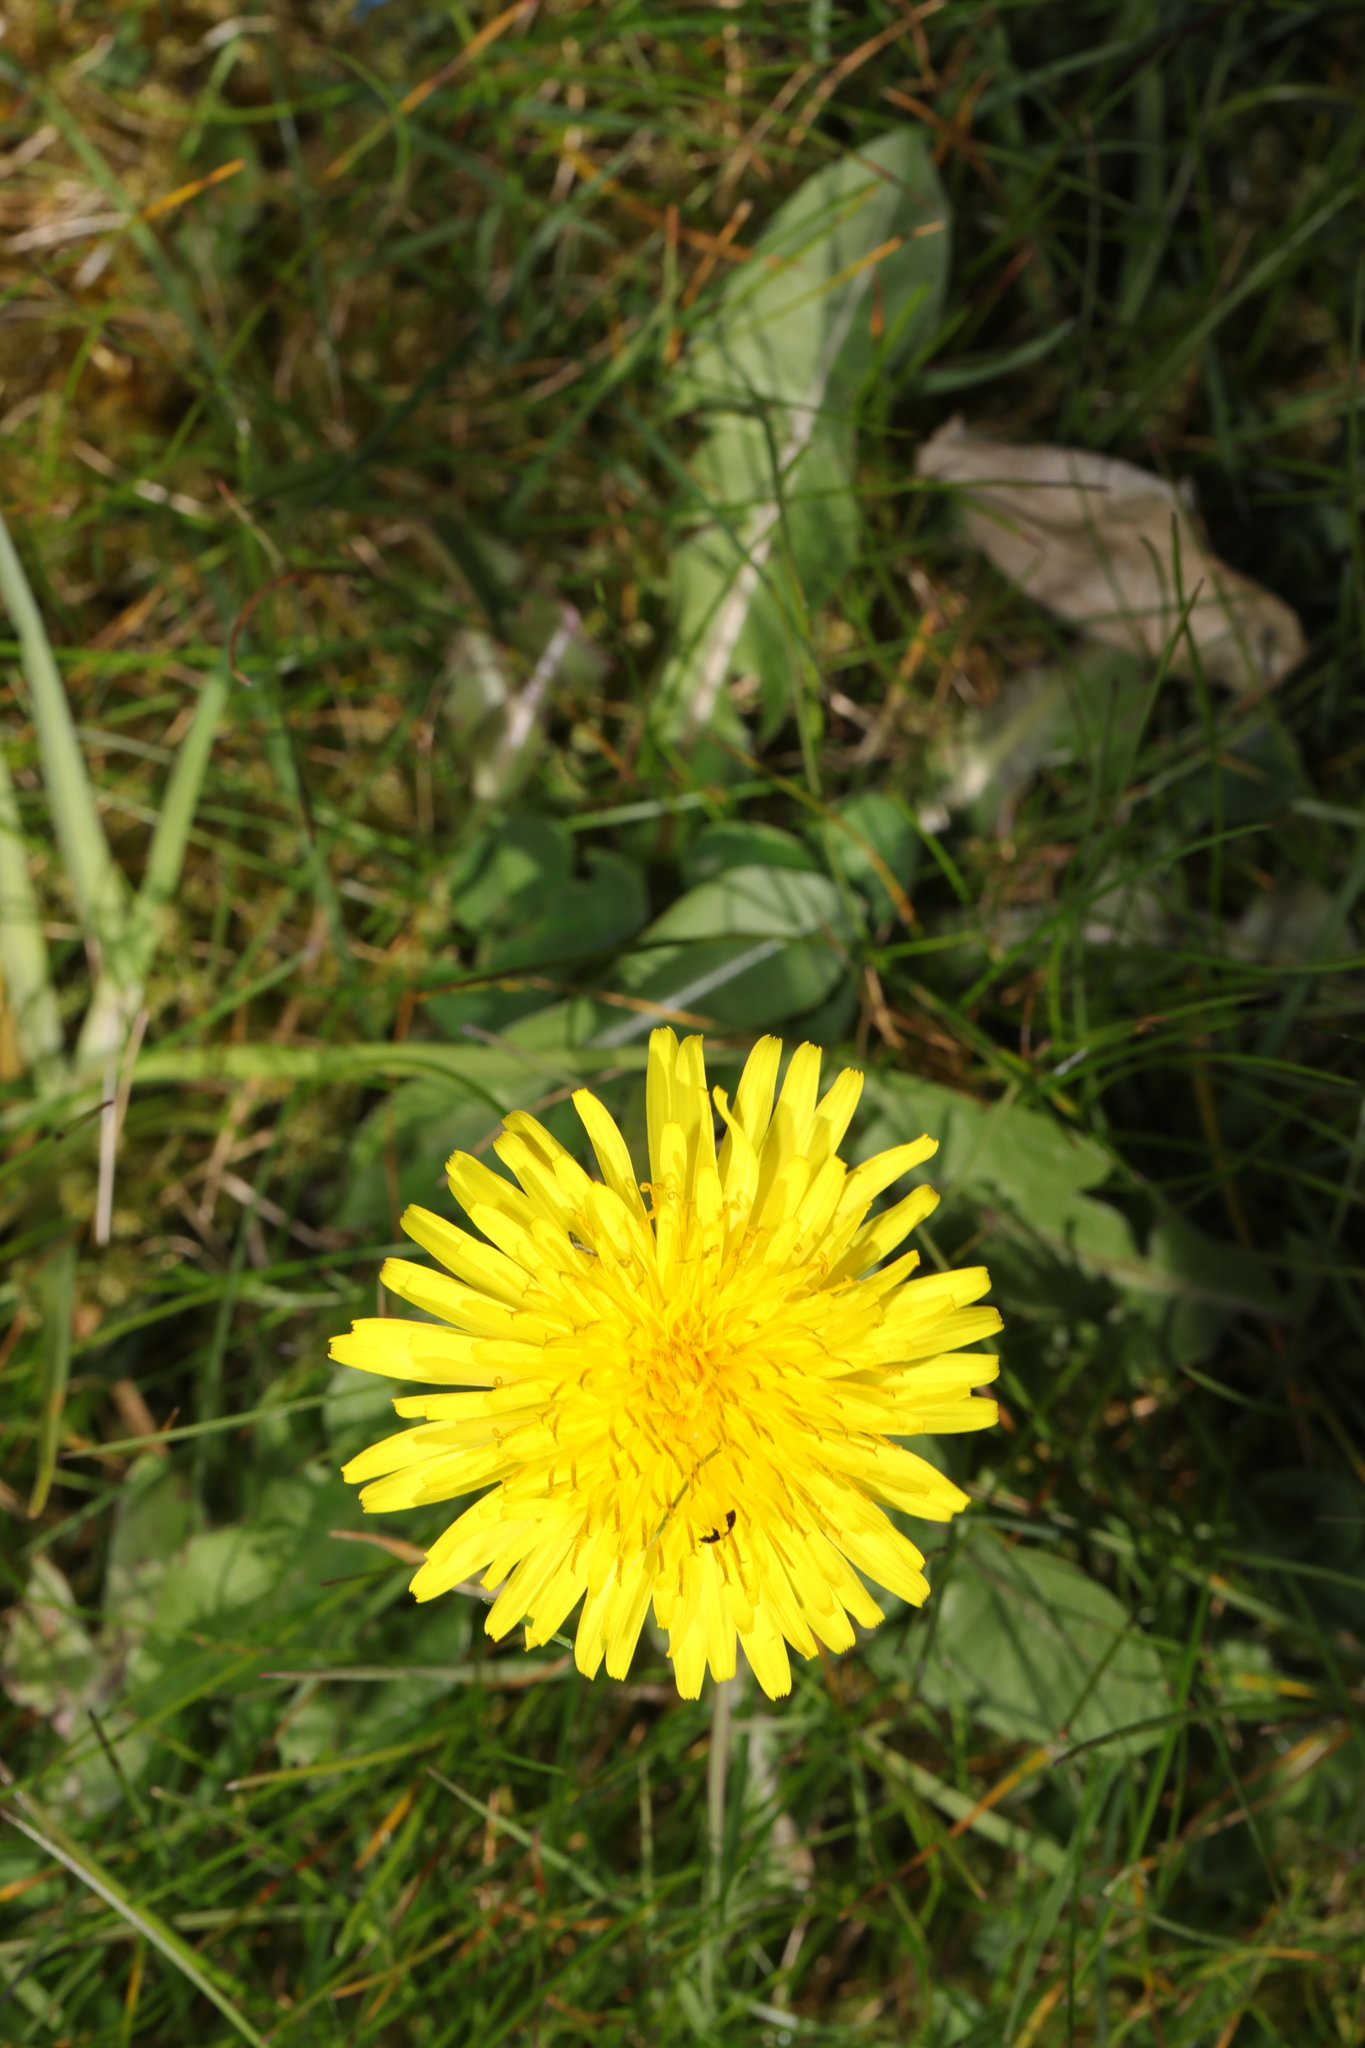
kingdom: Plantae
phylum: Tracheophyta
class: Magnoliopsida
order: Asterales
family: Asteraceae
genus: Taraxacum
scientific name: Taraxacum officinale
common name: Common dandelion
